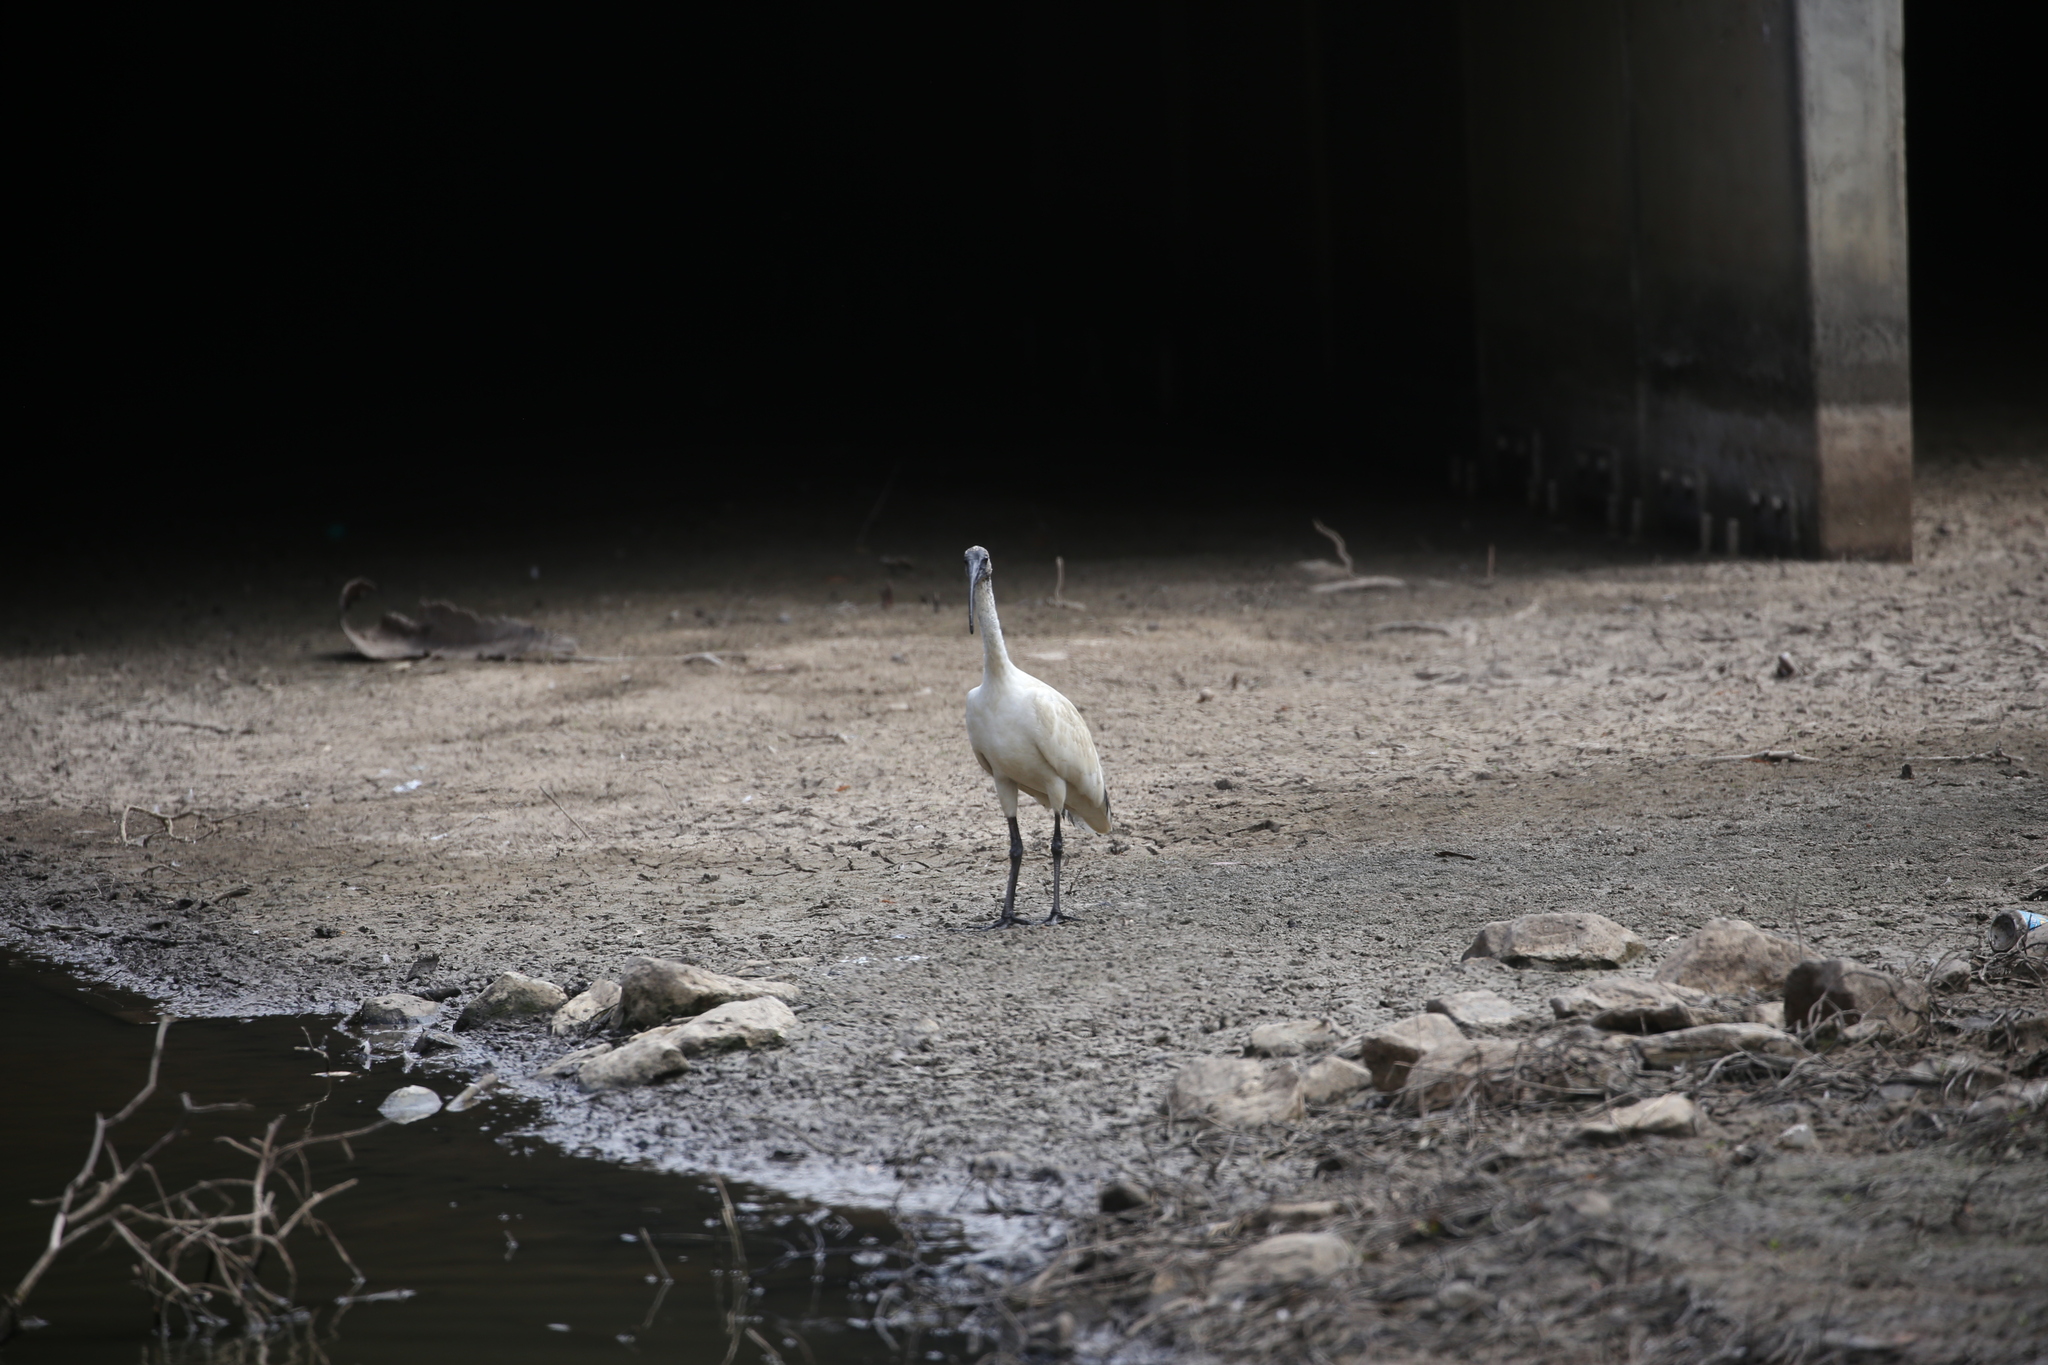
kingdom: Animalia
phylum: Chordata
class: Aves
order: Pelecaniformes
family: Threskiornithidae
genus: Threskiornis
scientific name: Threskiornis molucca
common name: Australian white ibis
